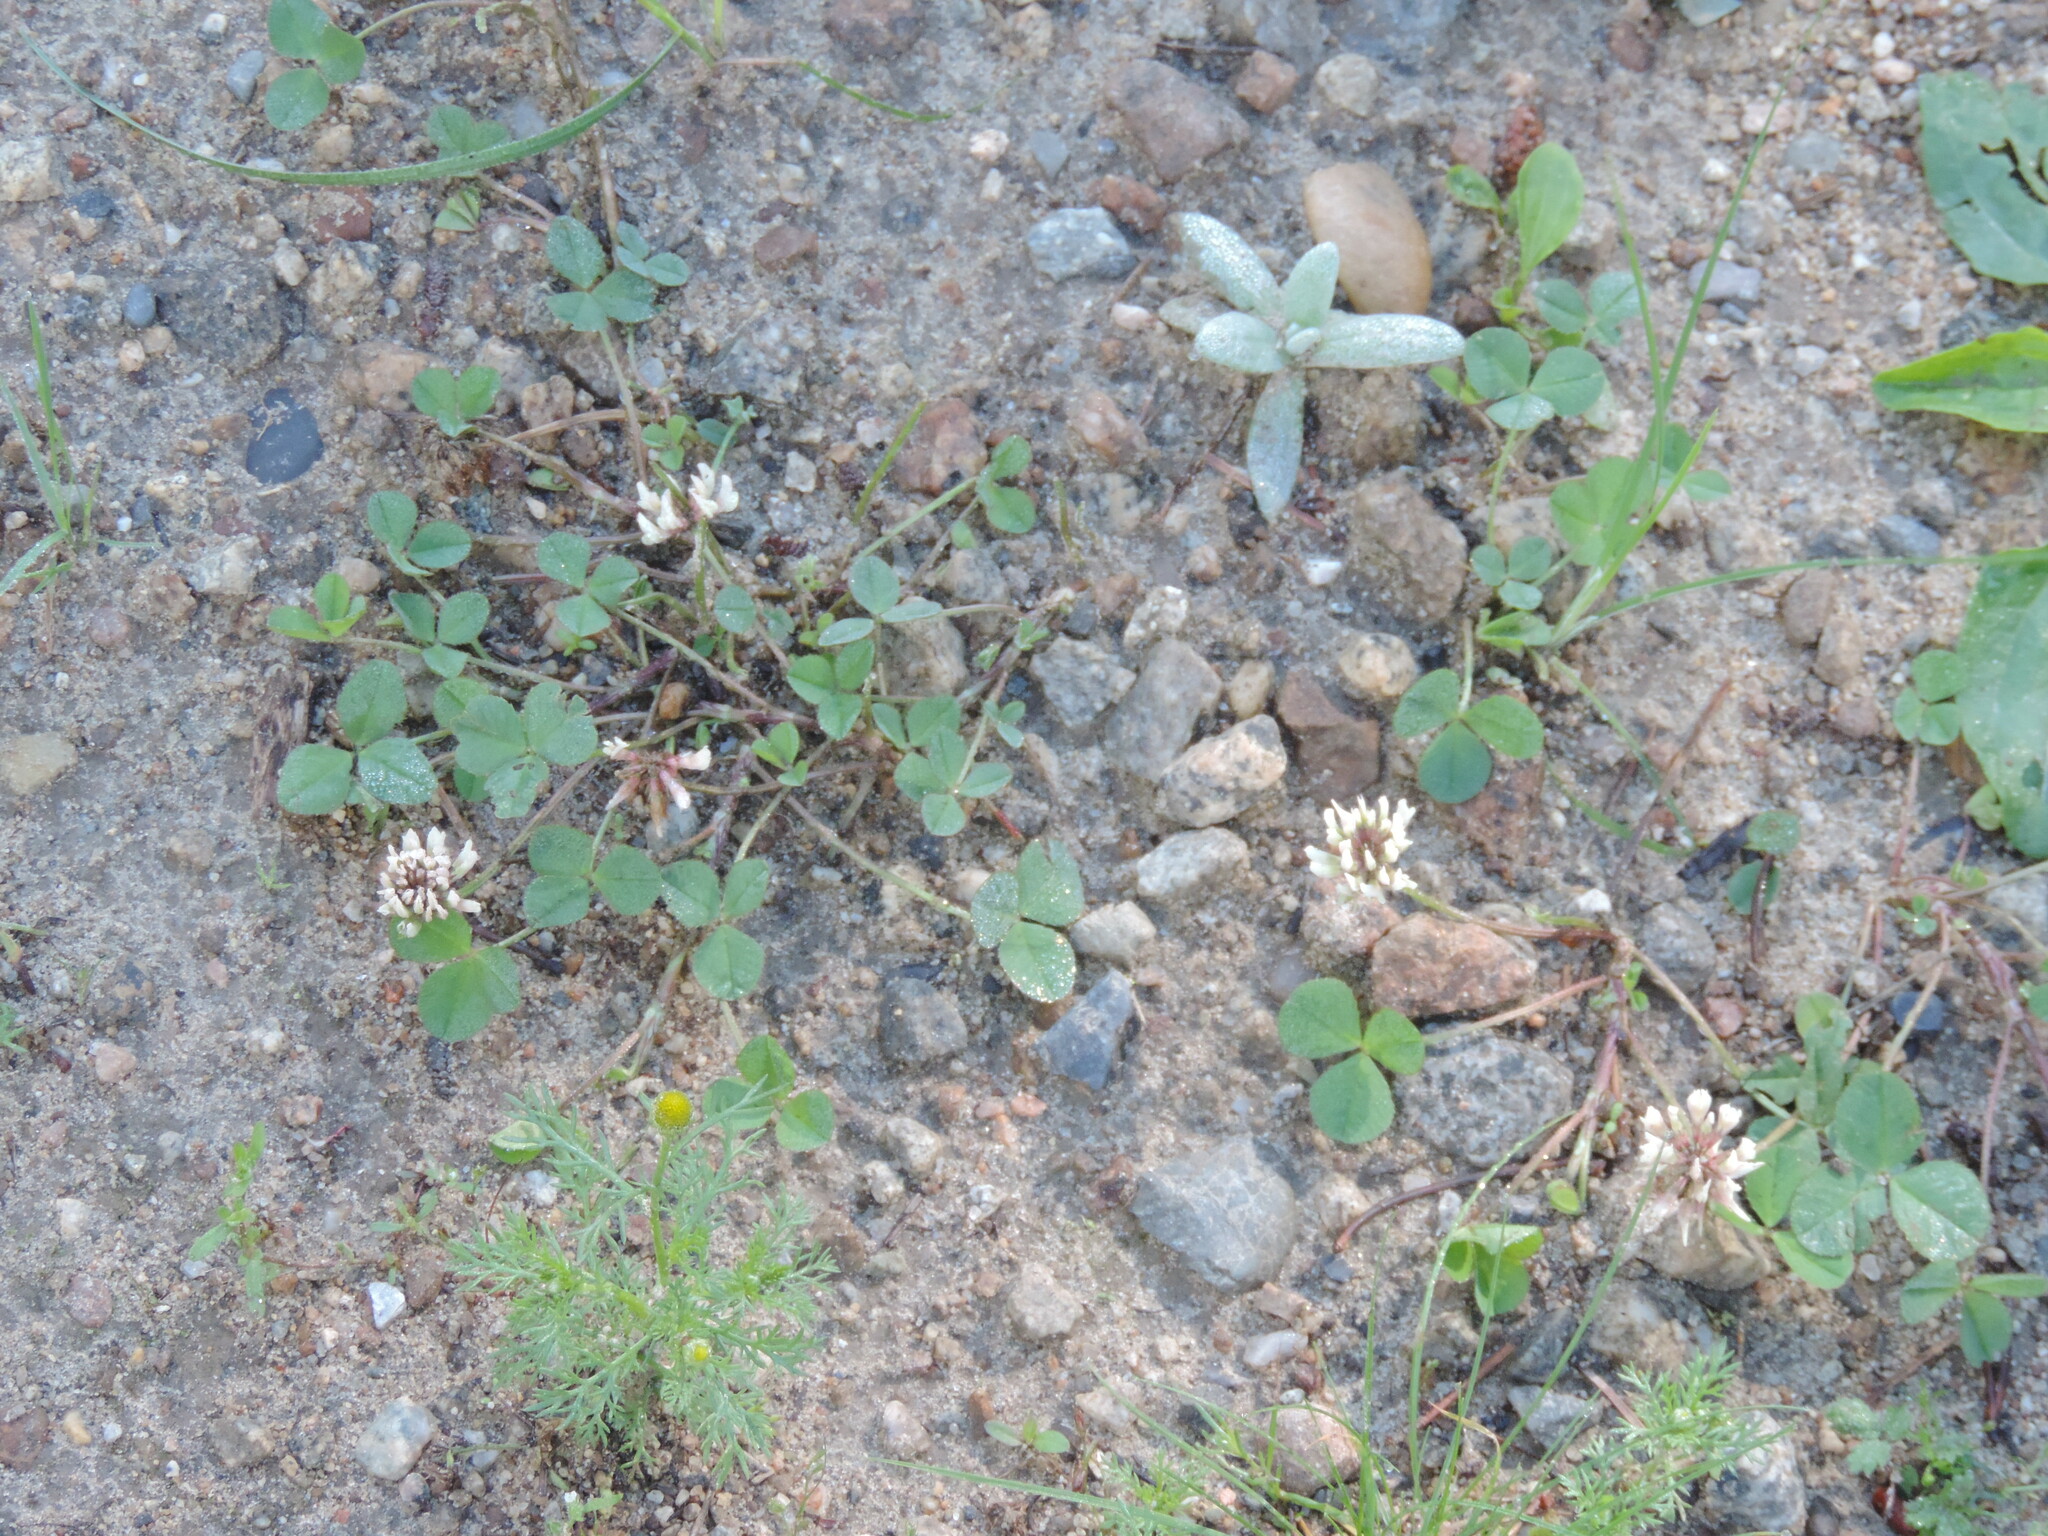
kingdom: Plantae
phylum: Tracheophyta
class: Magnoliopsida
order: Fabales
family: Fabaceae
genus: Trifolium
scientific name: Trifolium repens
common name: White clover
